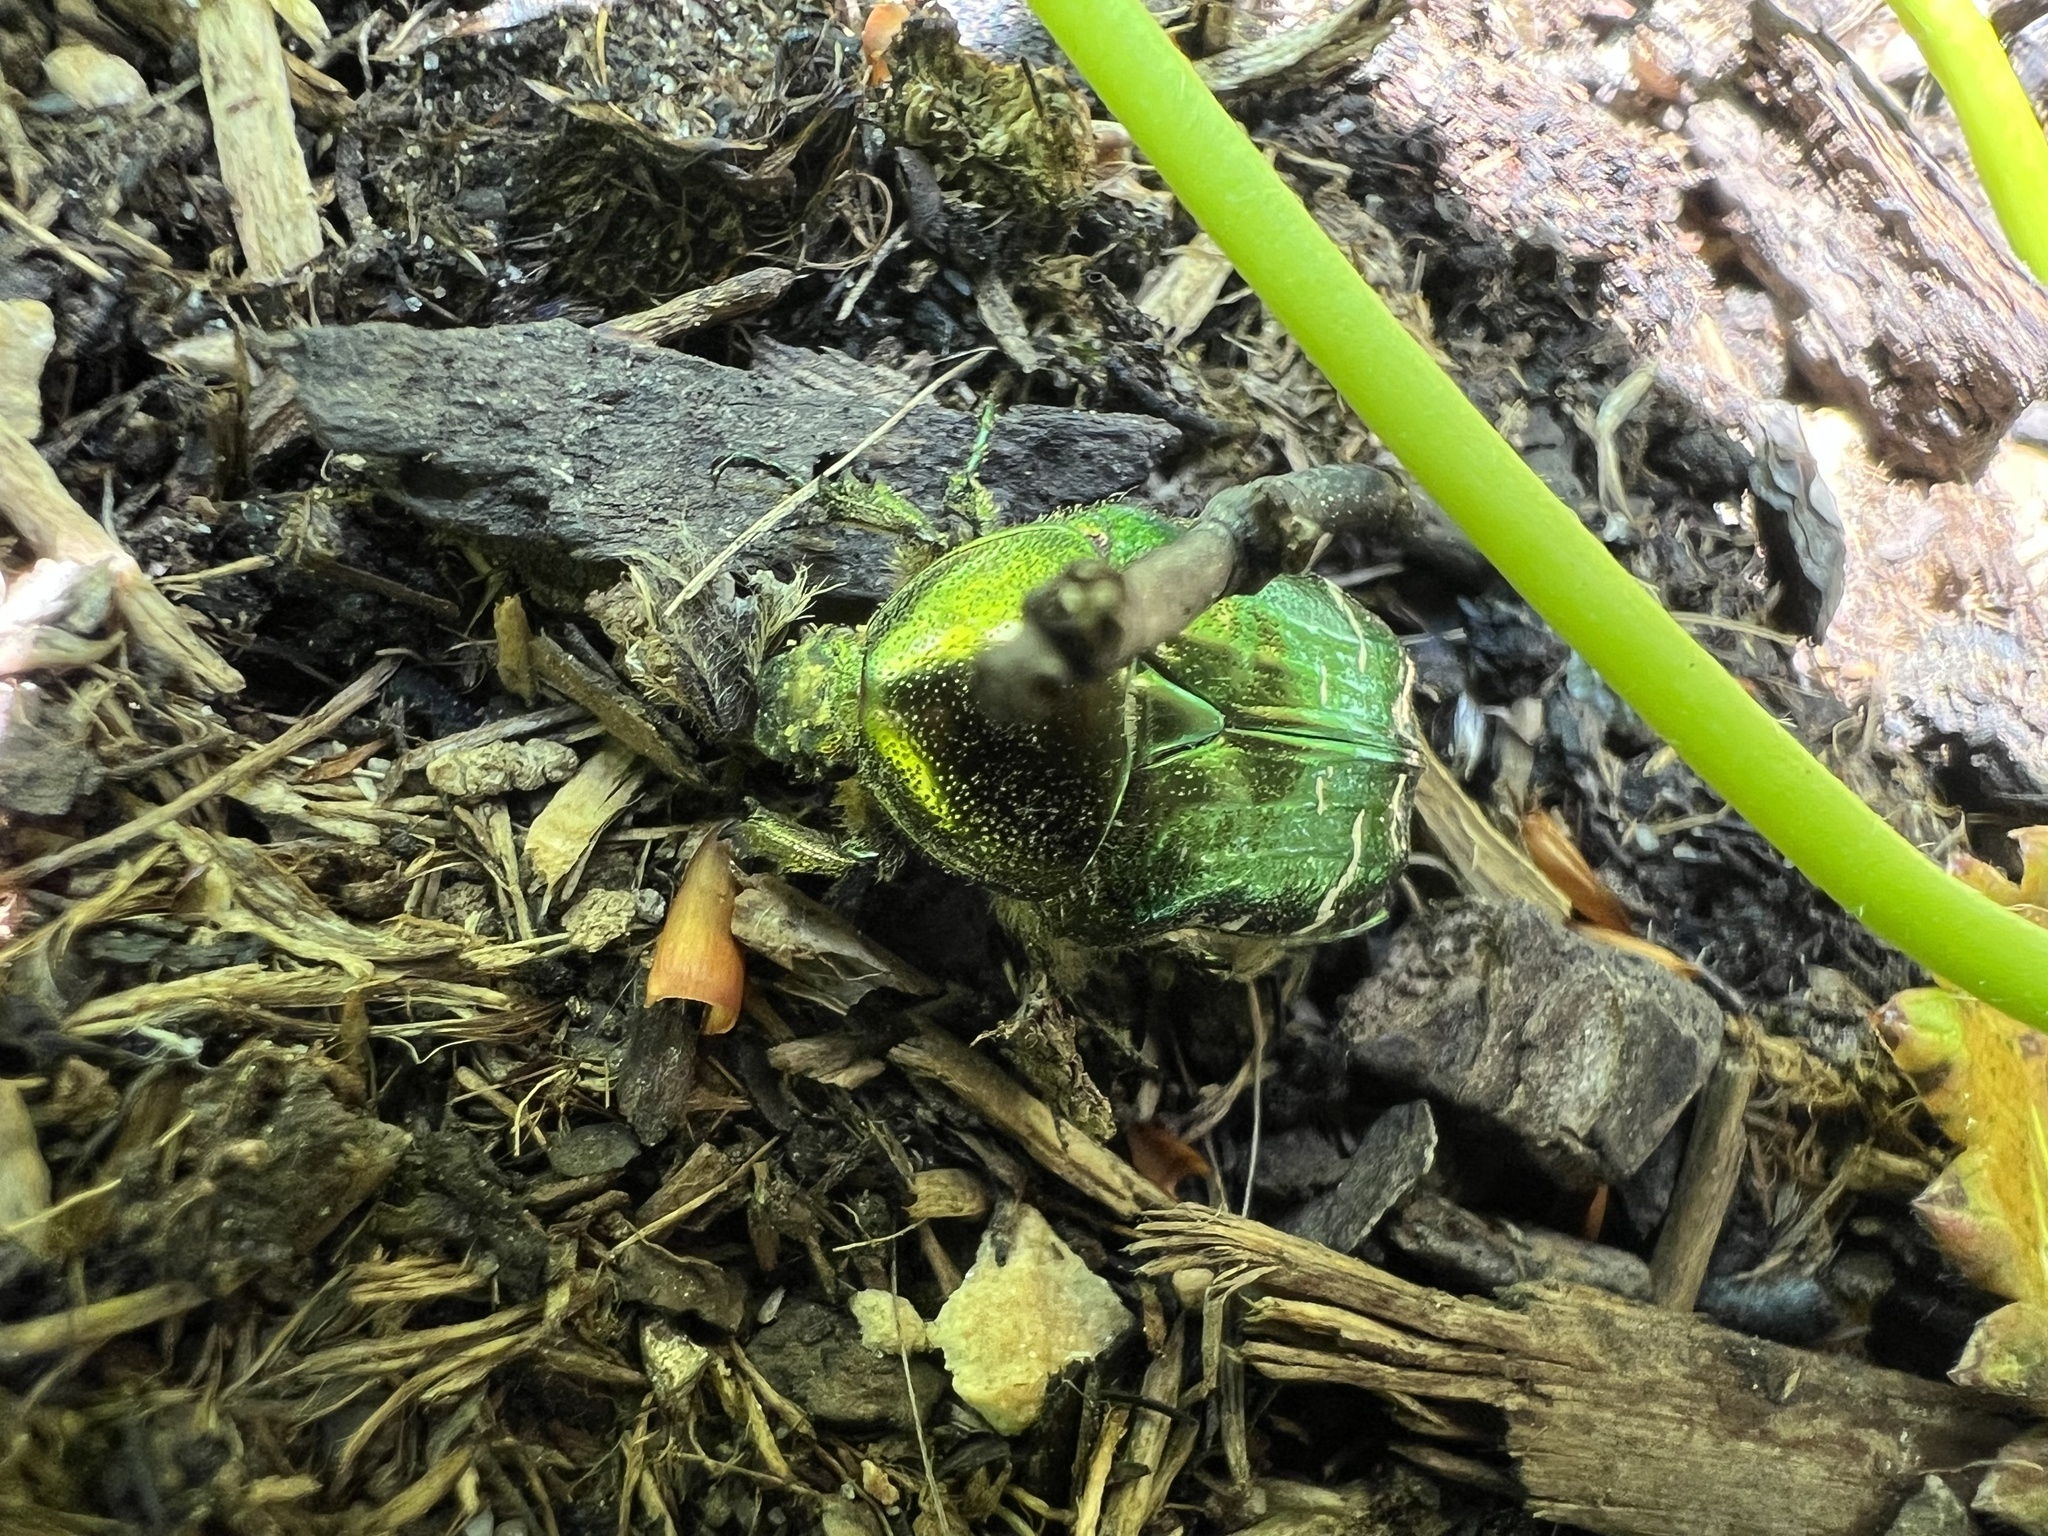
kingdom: Animalia
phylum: Arthropoda
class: Insecta
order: Coleoptera
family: Scarabaeidae
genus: Cetonia
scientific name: Cetonia aurata
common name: Rose chafer
